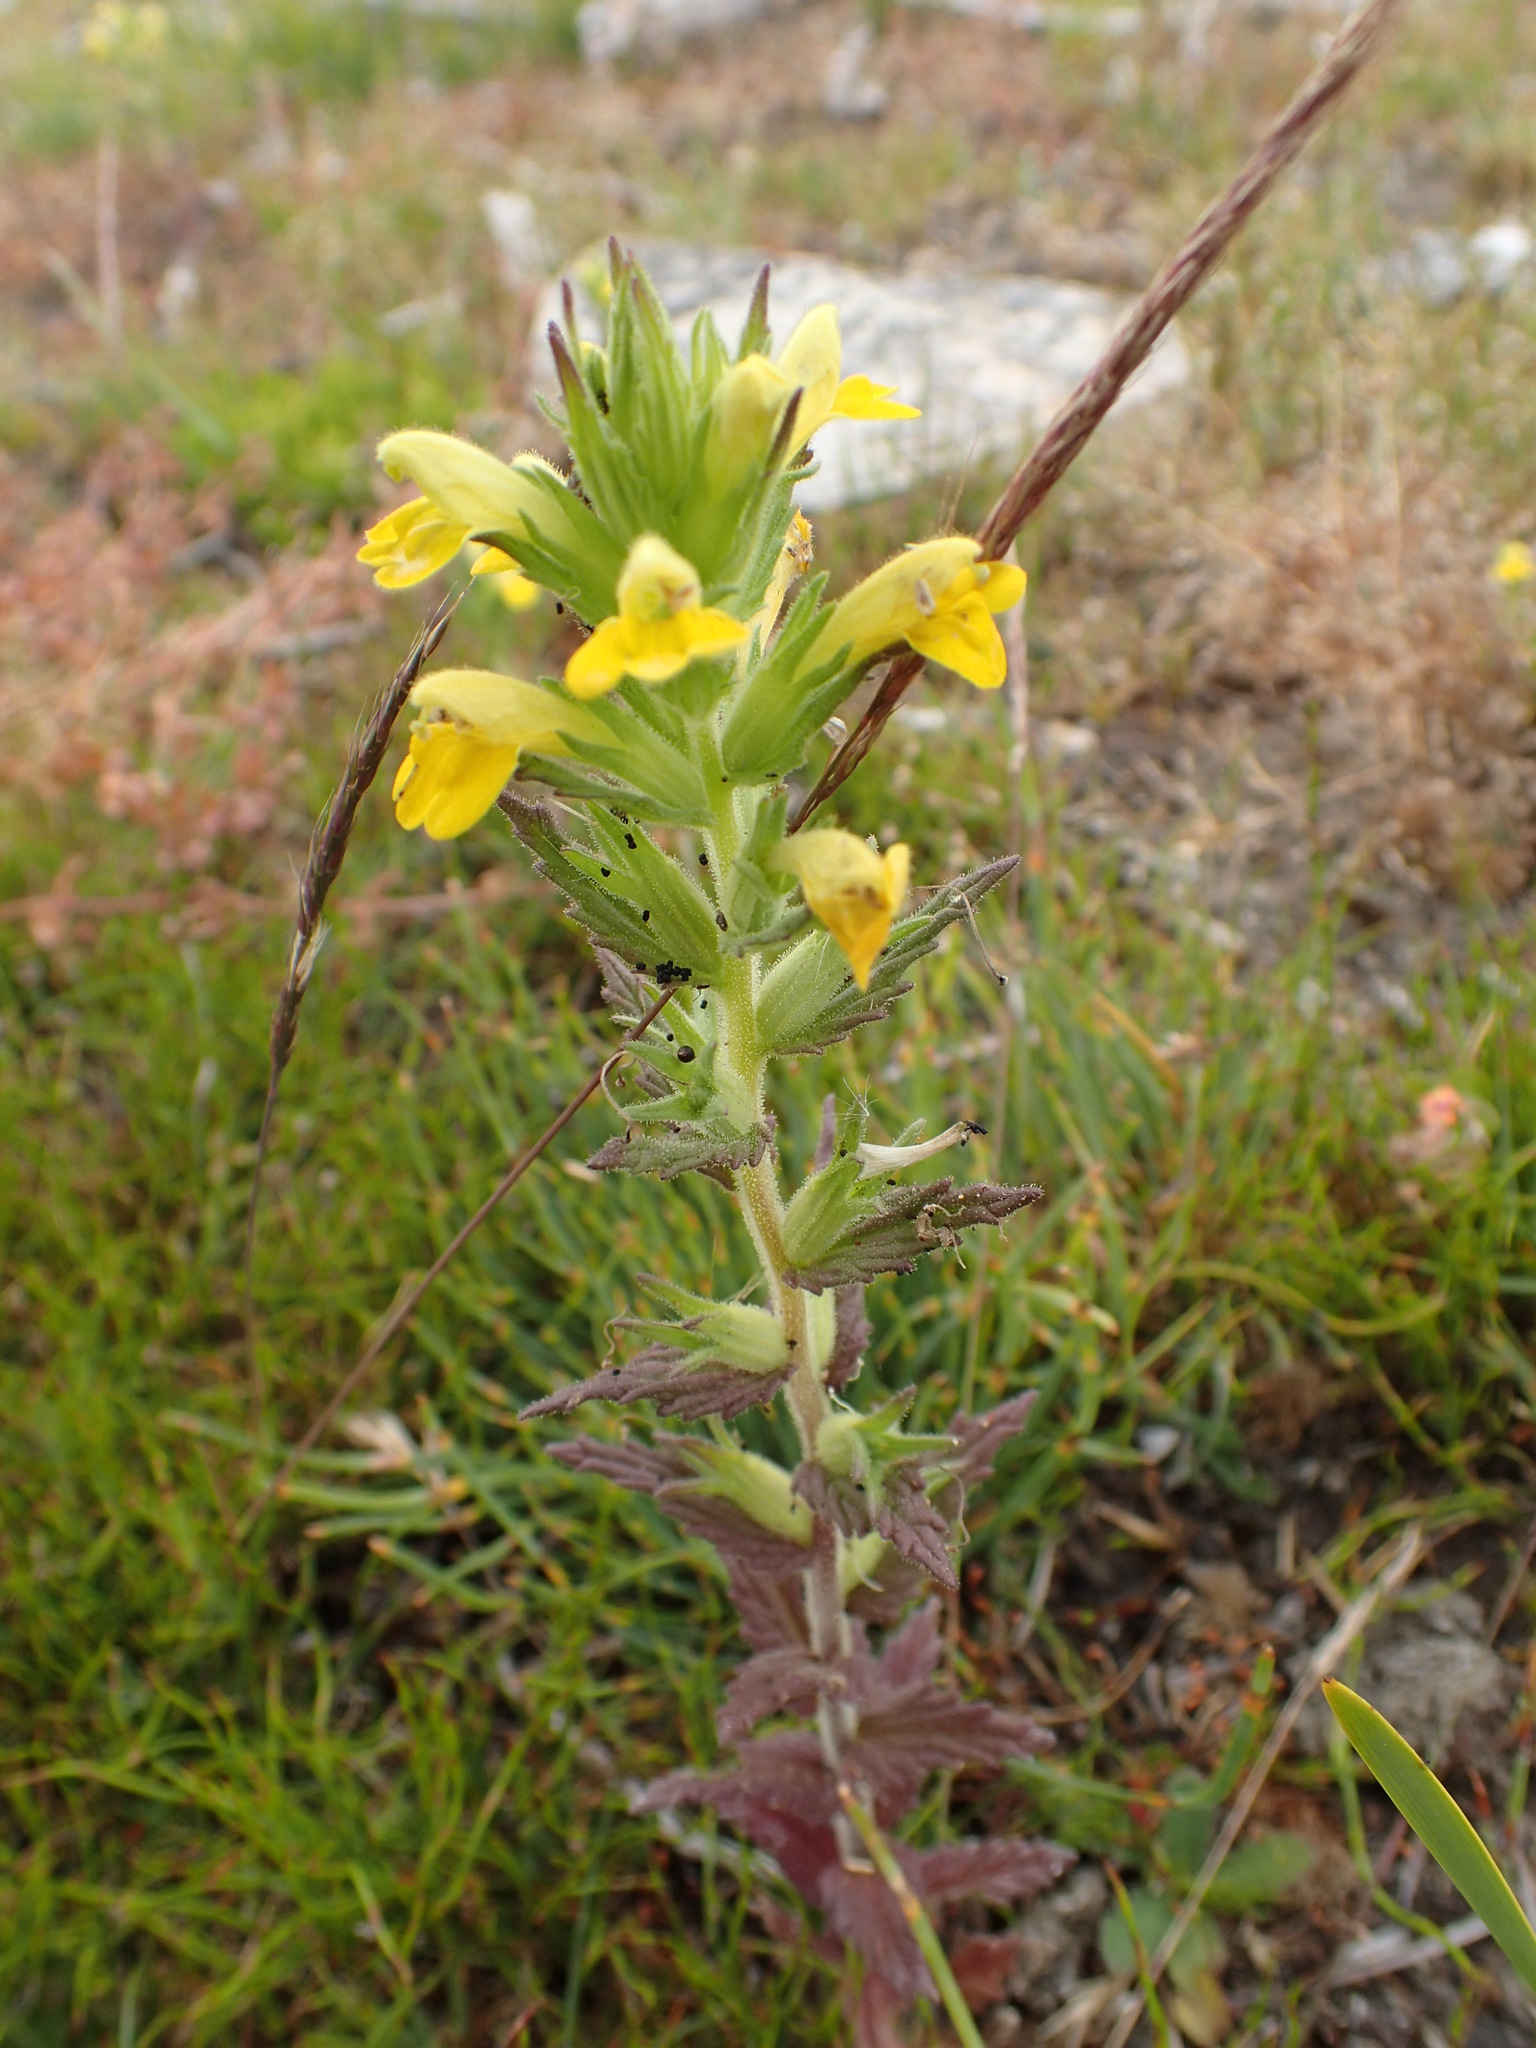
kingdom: Plantae
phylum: Tracheophyta
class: Magnoliopsida
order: Lamiales
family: Orobanchaceae
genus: Bellardia
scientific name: Bellardia viscosa
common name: Sticky parentucellia
